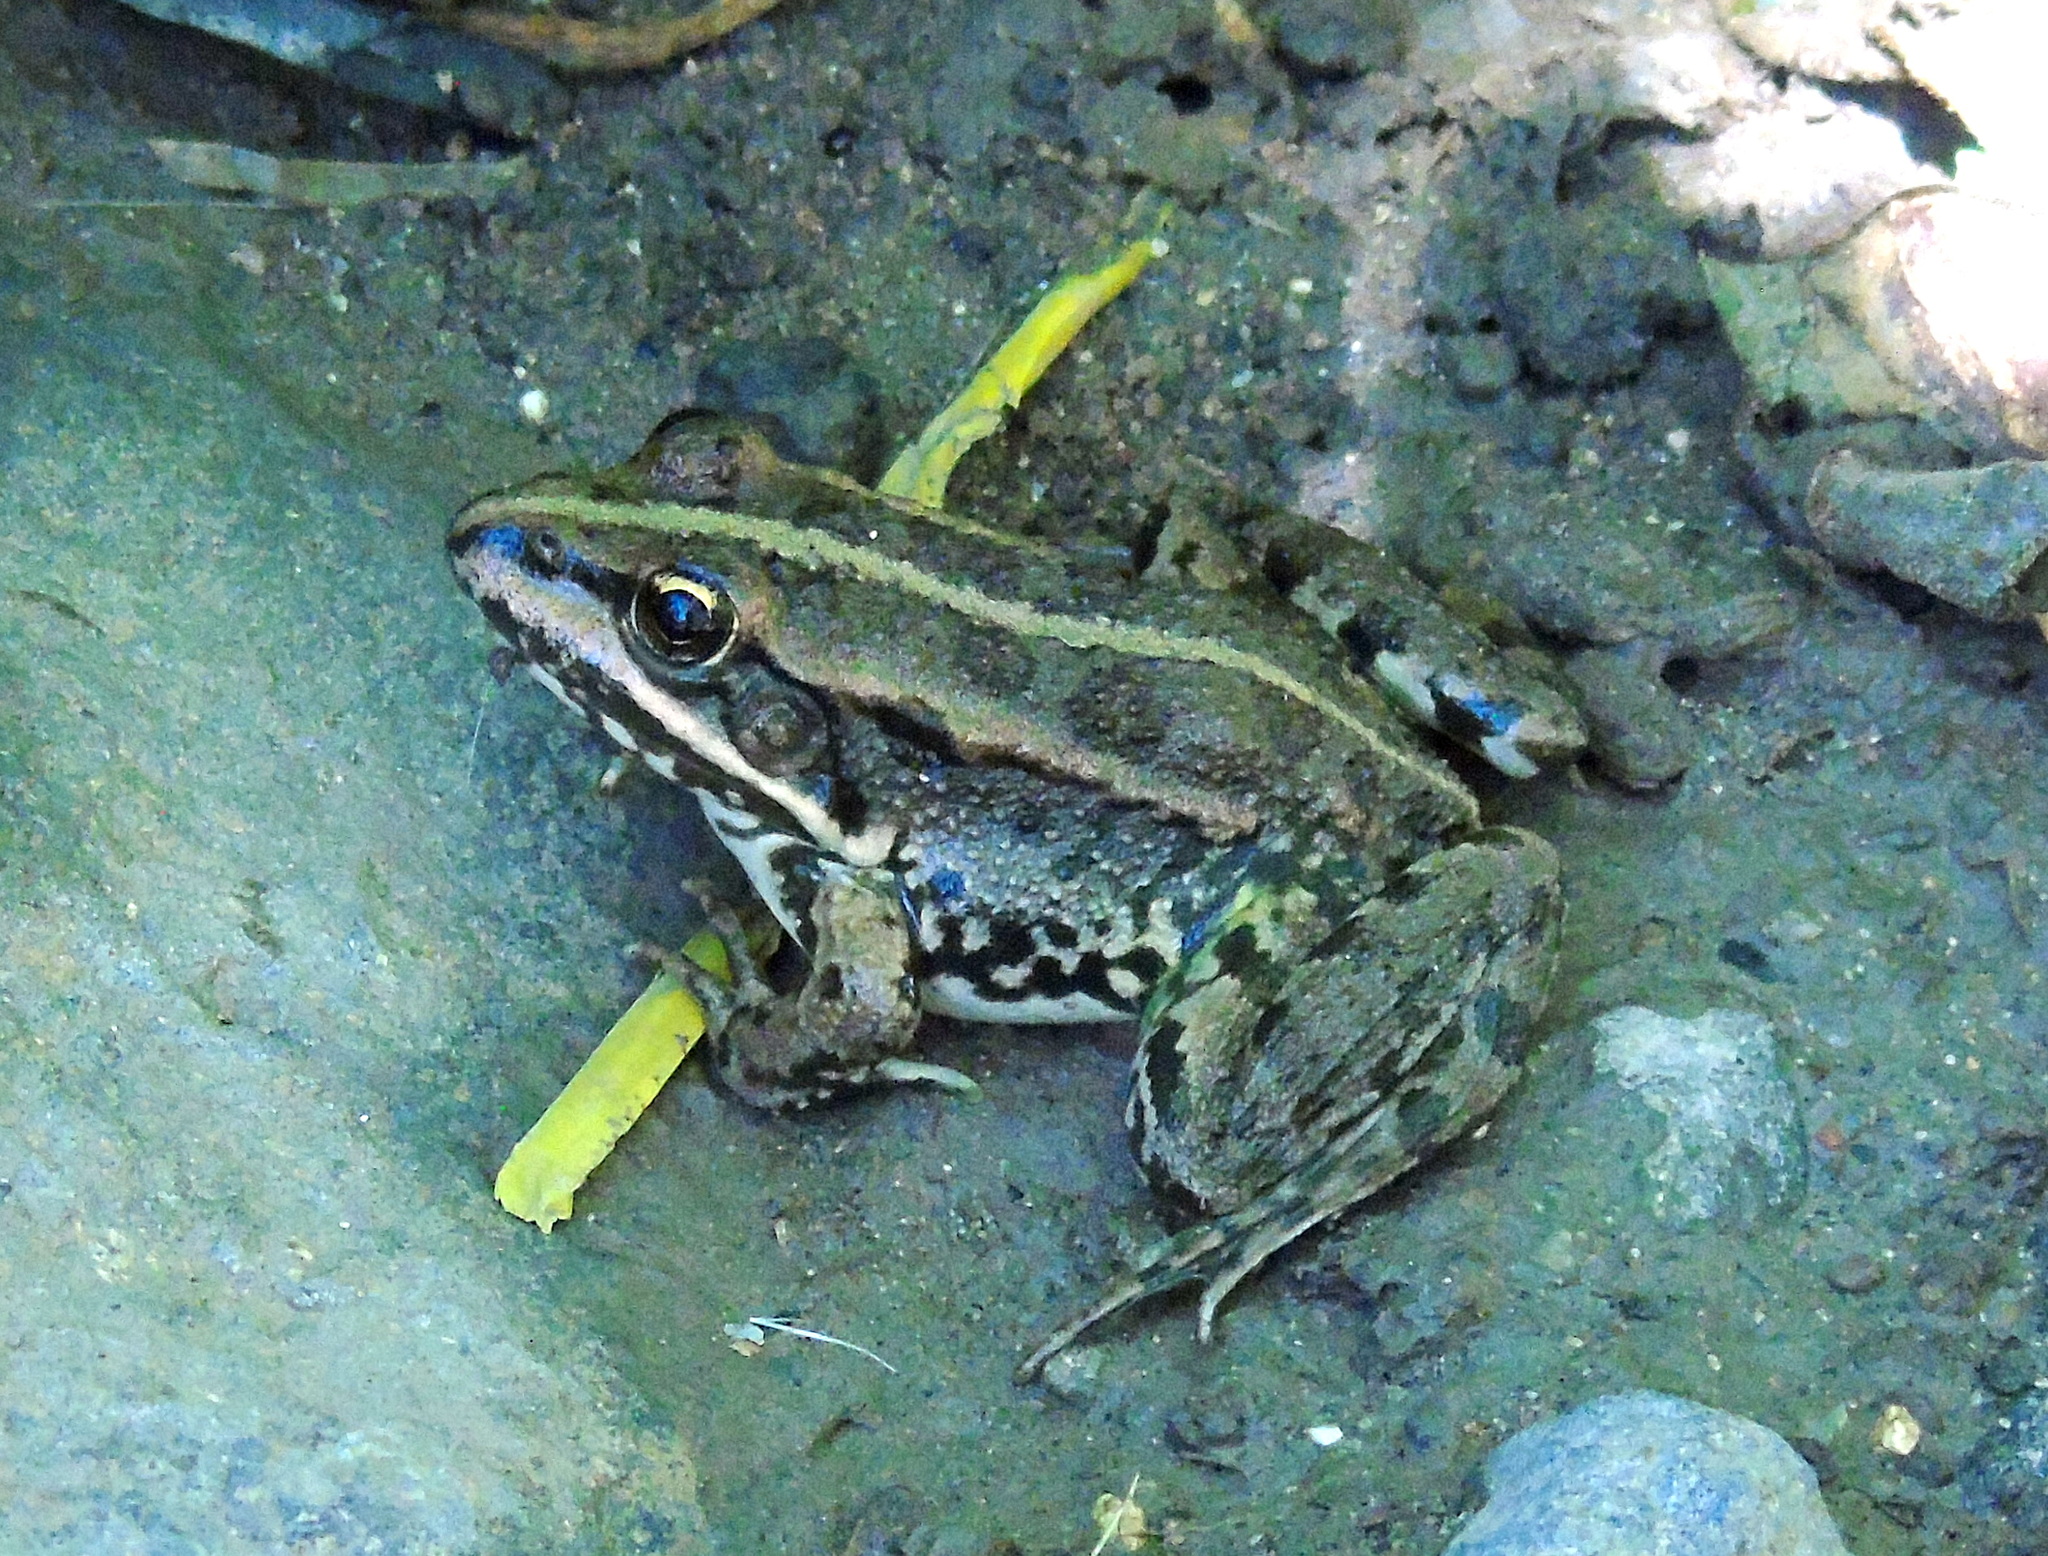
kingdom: Animalia
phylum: Chordata
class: Amphibia
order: Anura
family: Ranidae
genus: Pelophylax
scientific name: Pelophylax ridibundus
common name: Marsh frog
